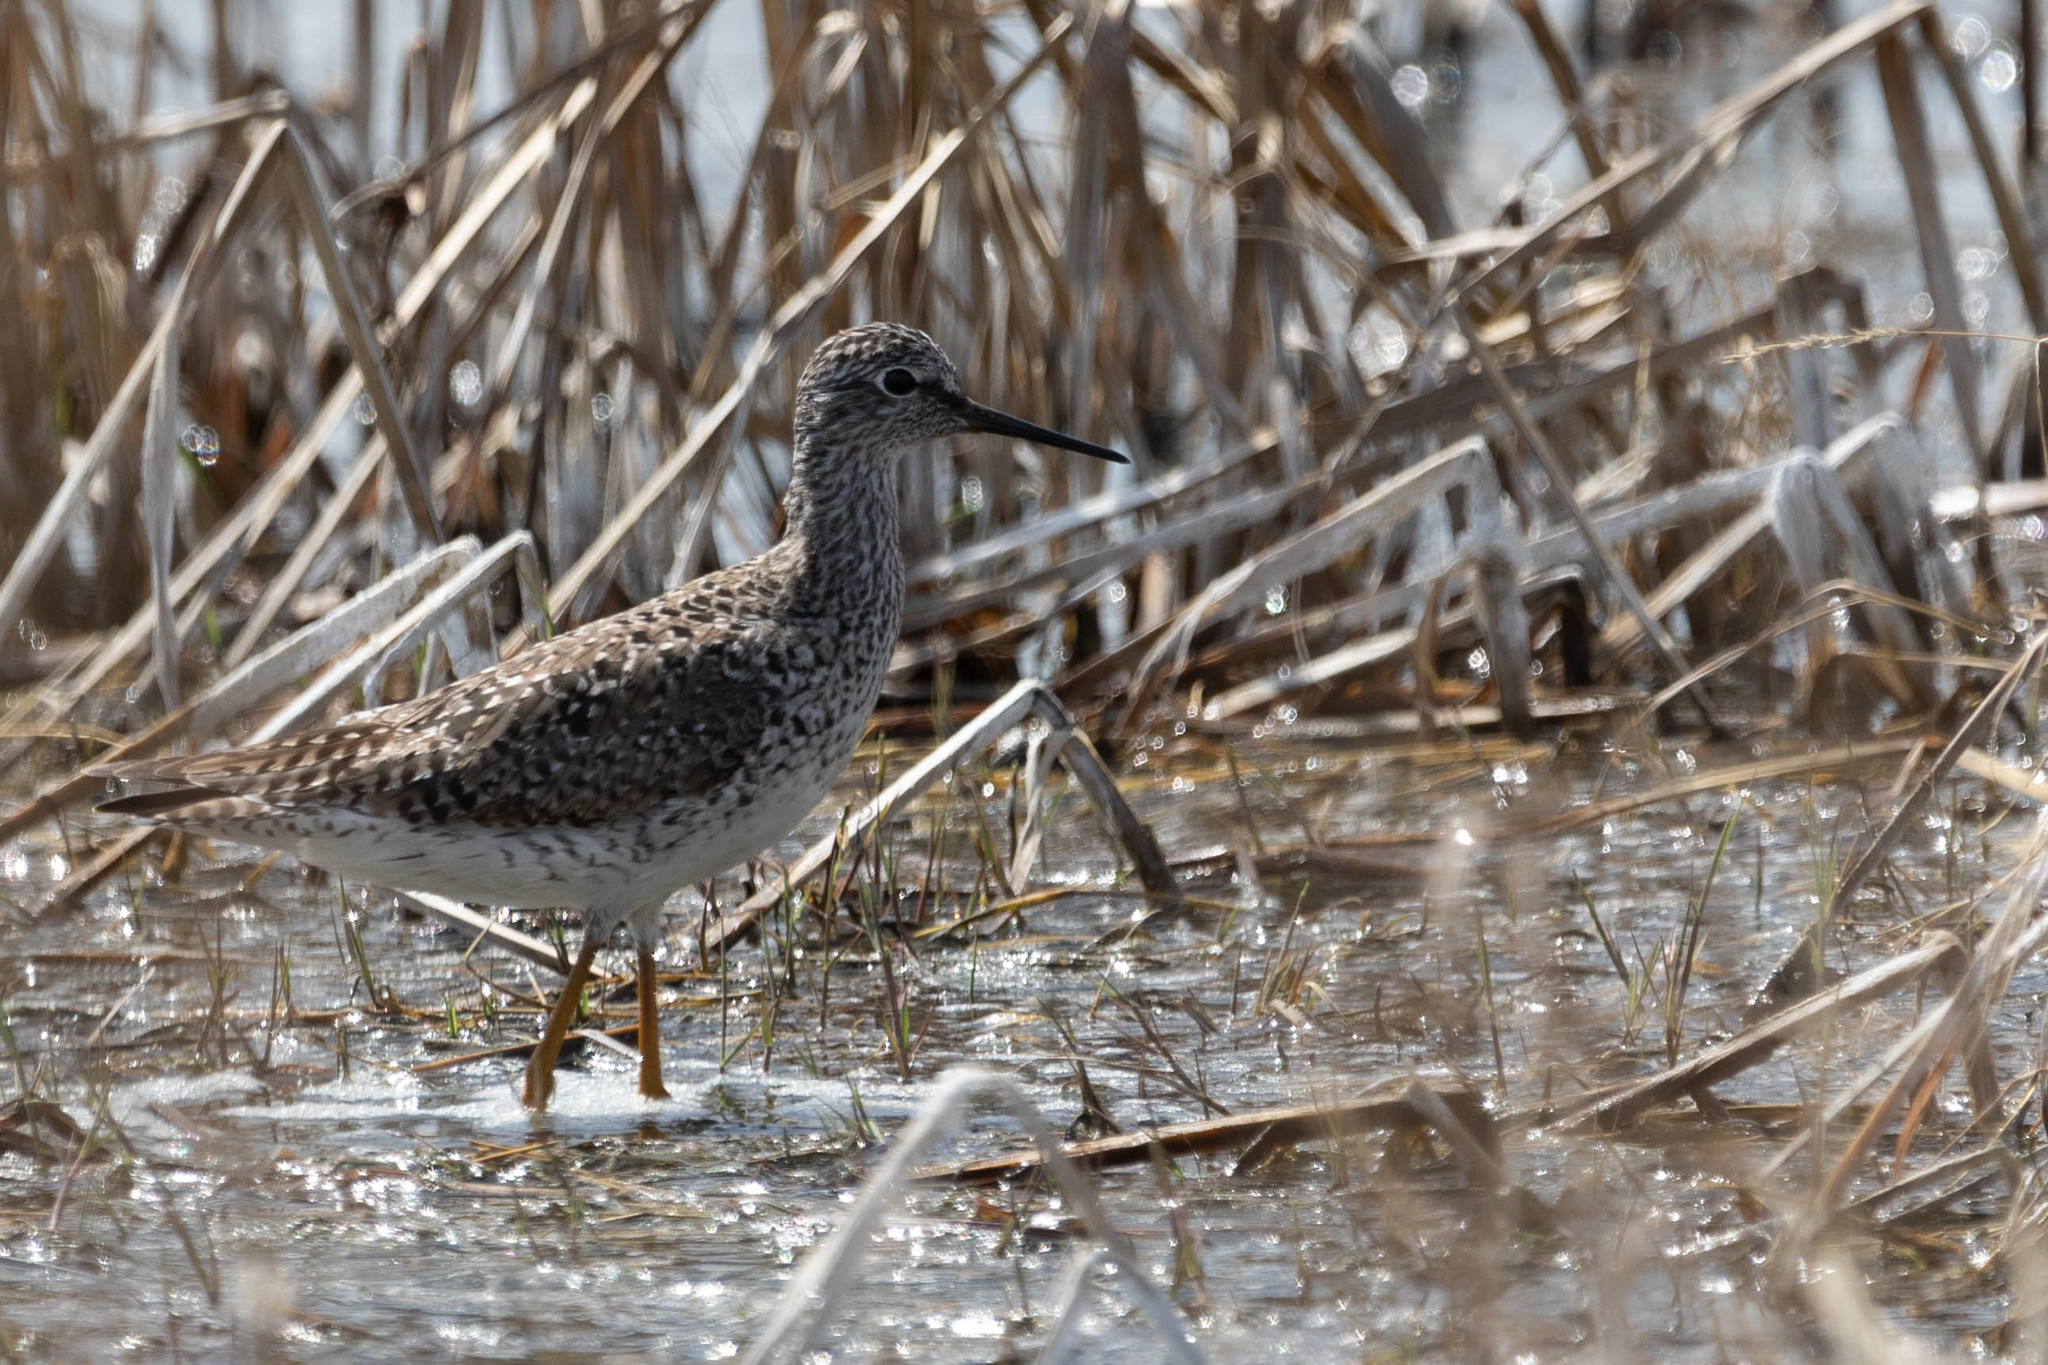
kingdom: Animalia
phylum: Chordata
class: Aves
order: Charadriiformes
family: Scolopacidae
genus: Tringa
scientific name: Tringa flavipes
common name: Lesser yellowlegs
